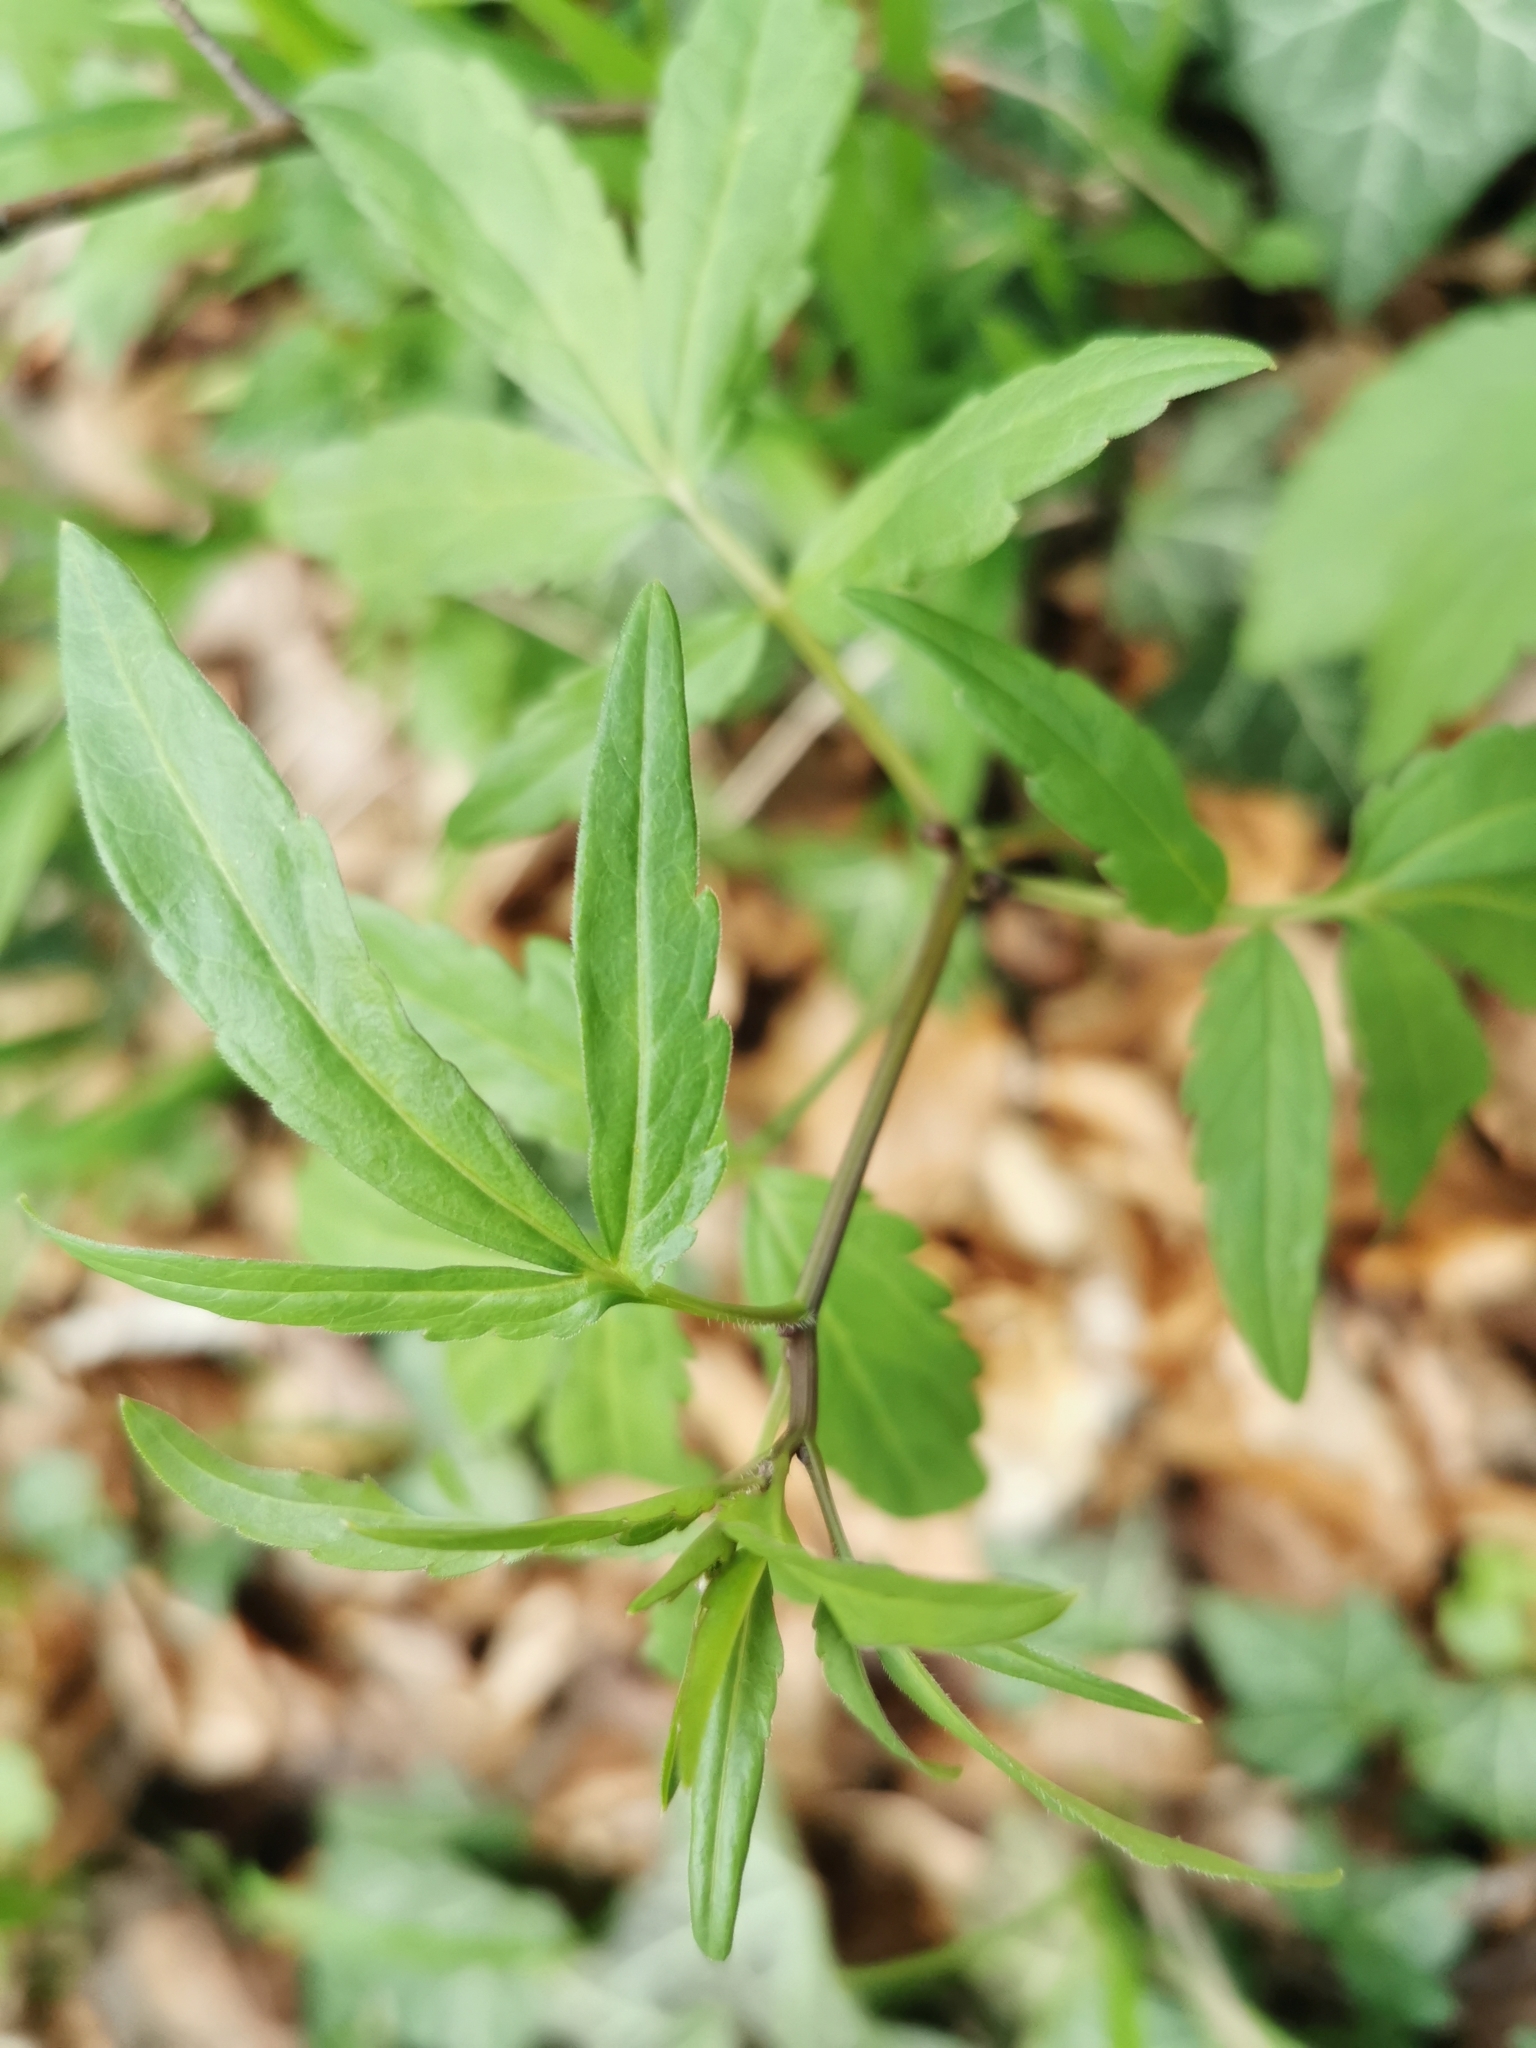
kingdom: Plantae
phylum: Tracheophyta
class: Magnoliopsida
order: Brassicales
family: Brassicaceae
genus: Cardamine
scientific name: Cardamine bulbifera
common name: Coralroot bittercress
